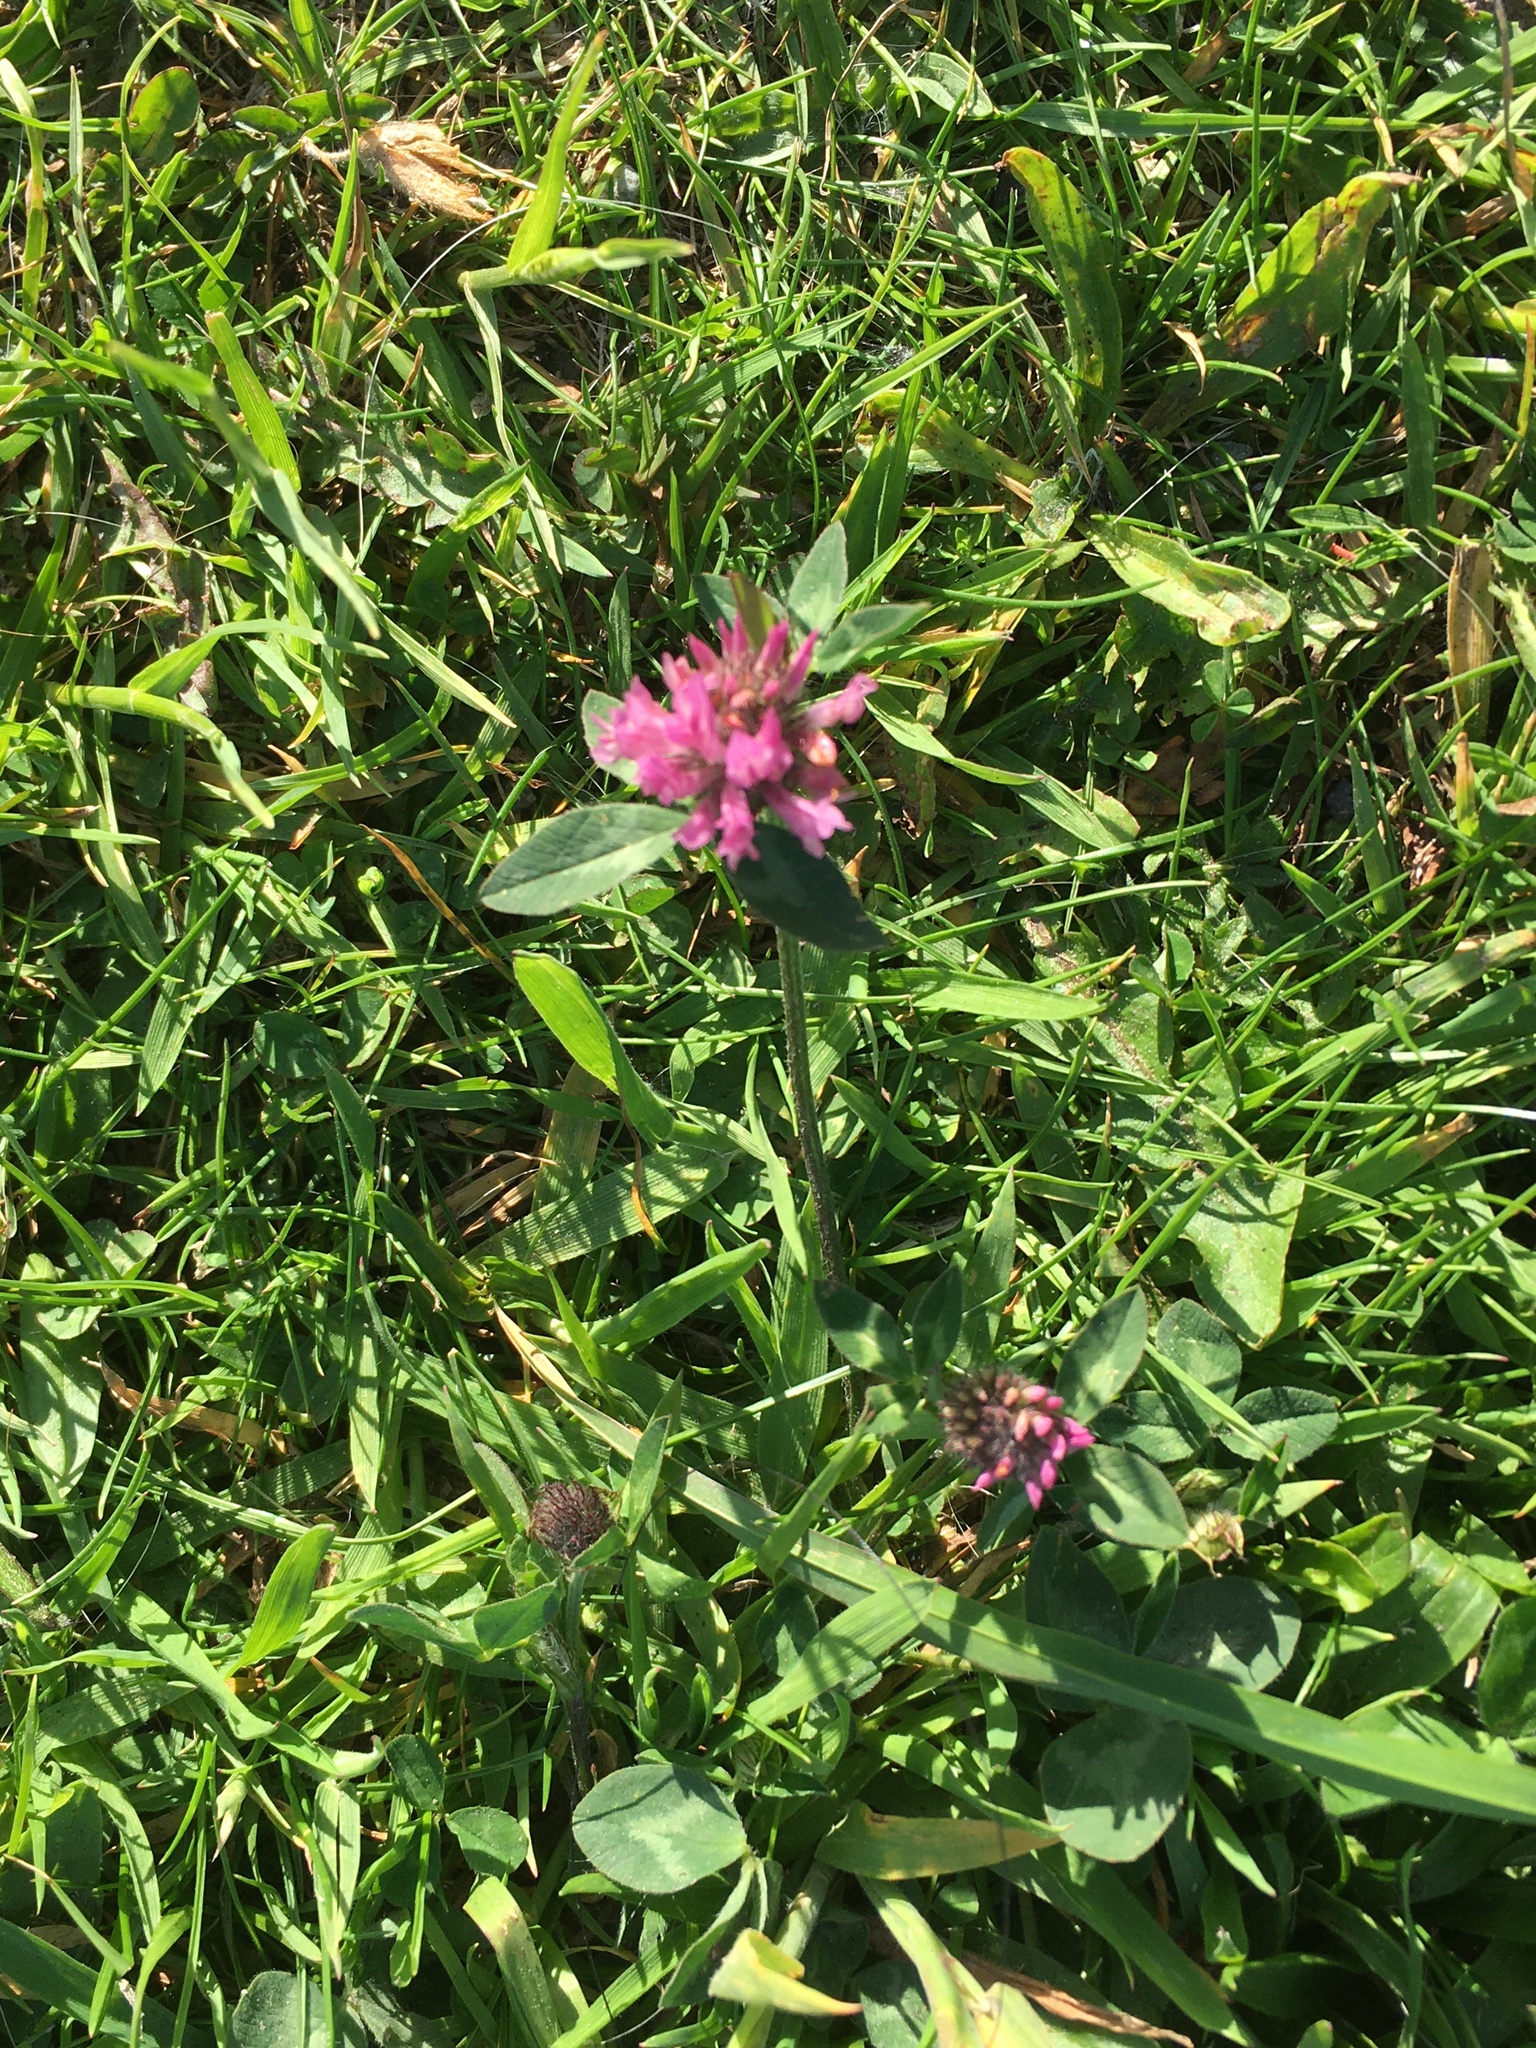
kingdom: Plantae
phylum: Tracheophyta
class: Magnoliopsida
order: Fabales
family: Fabaceae
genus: Trifolium
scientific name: Trifolium pratense
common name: Red clover
